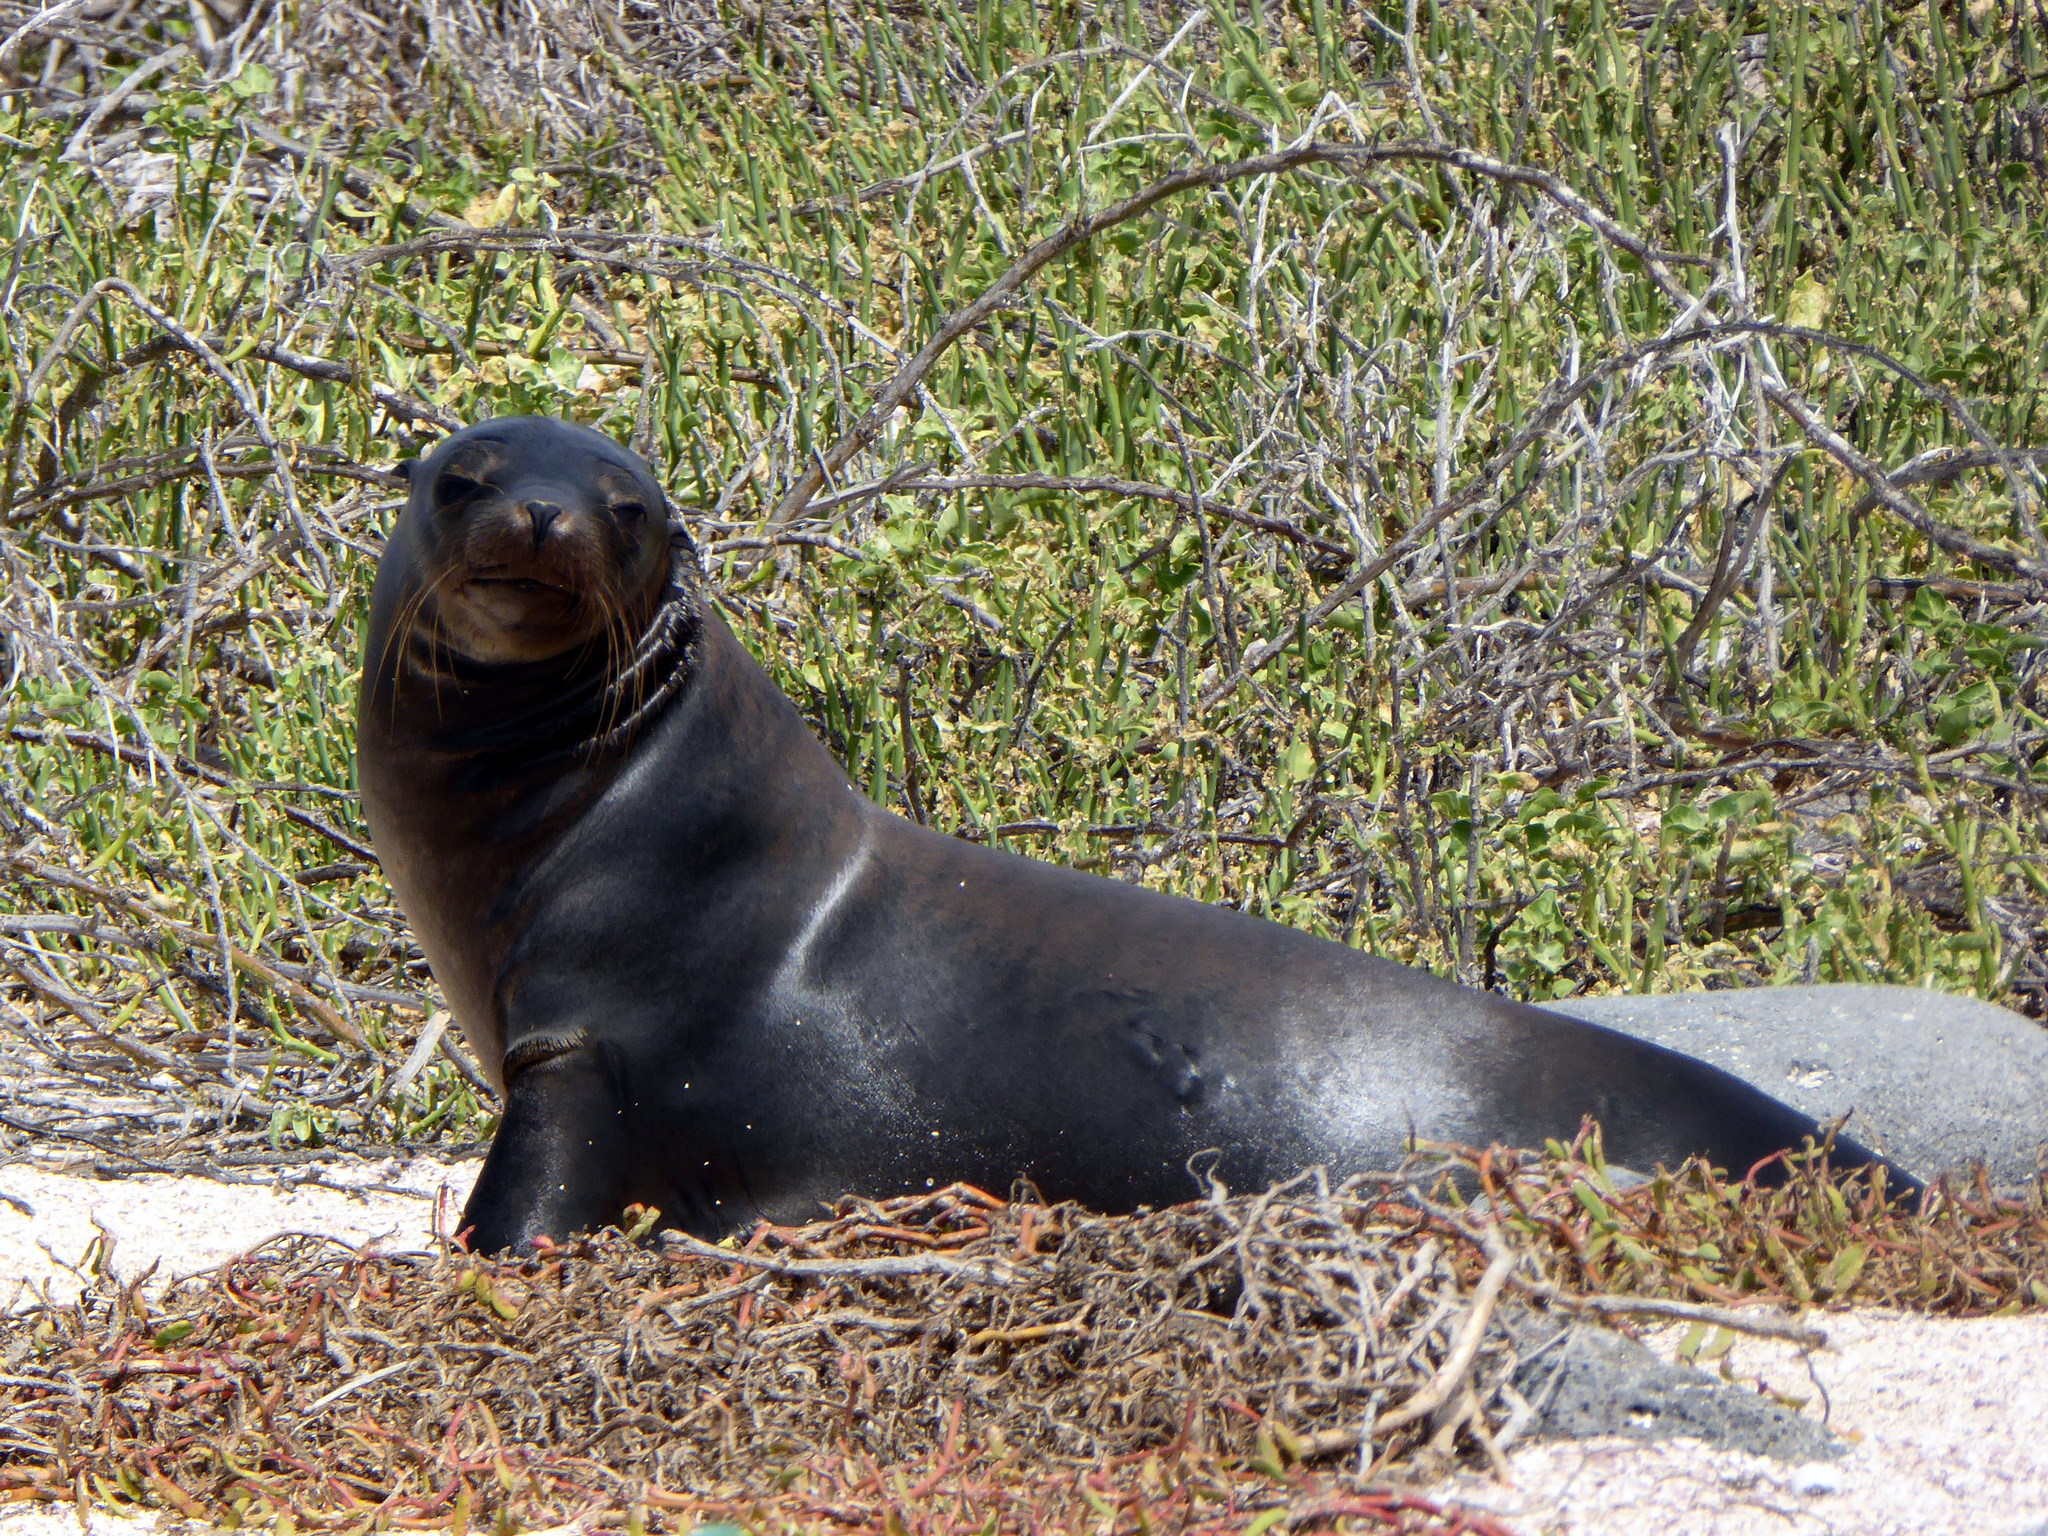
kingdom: Animalia
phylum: Chordata
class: Mammalia
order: Carnivora
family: Otariidae
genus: Zalophus
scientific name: Zalophus wollebaeki
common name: Galapagos sea lion
